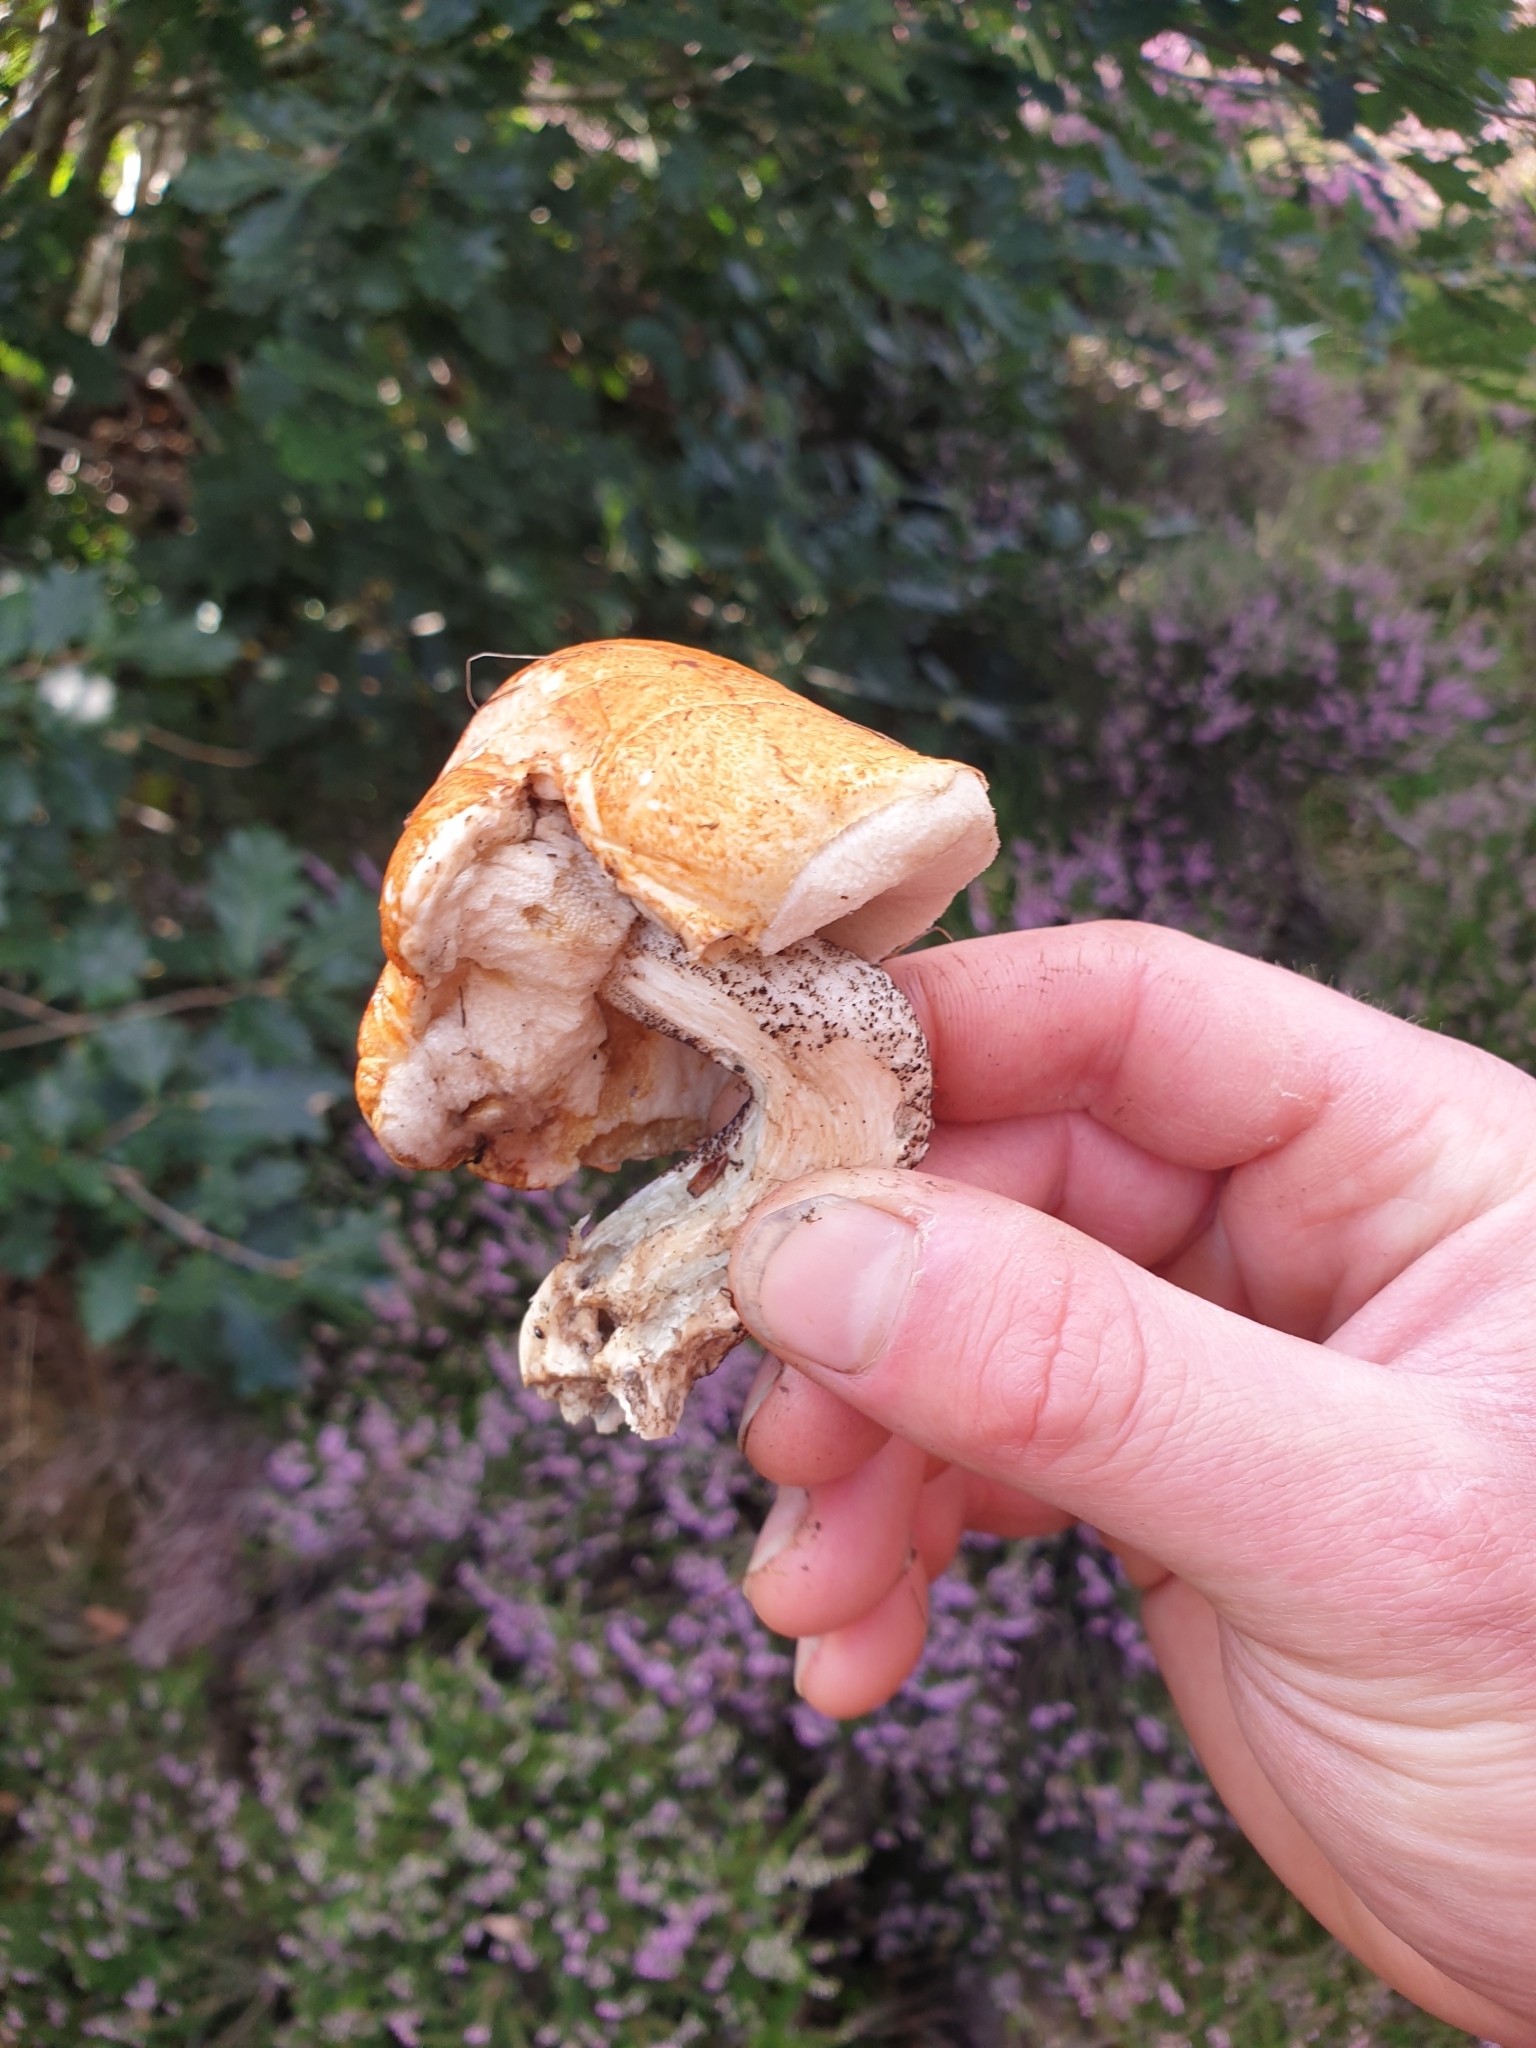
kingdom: Fungi
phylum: Basidiomycota
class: Agaricomycetes
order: Boletales
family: Boletaceae
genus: Leccinum
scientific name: Leccinum versipelle
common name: Orange birch bolete
